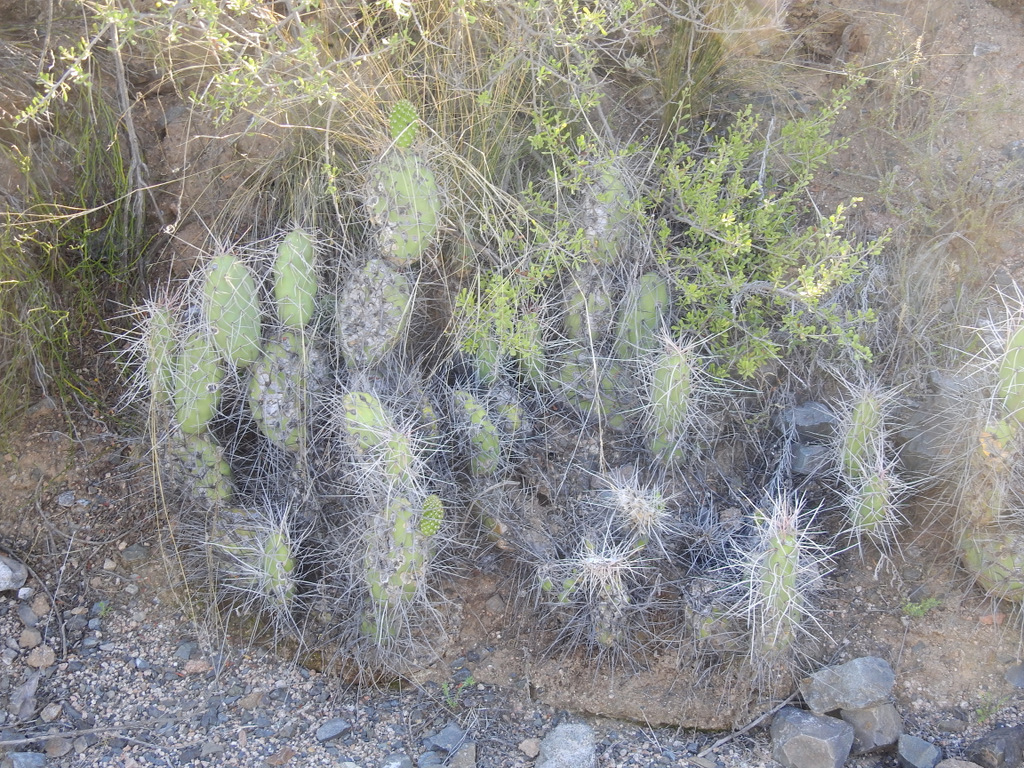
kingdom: Plantae
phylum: Tracheophyta
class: Magnoliopsida
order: Caryophyllales
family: Cactaceae
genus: Opuntia
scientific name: Opuntia sulphurea
